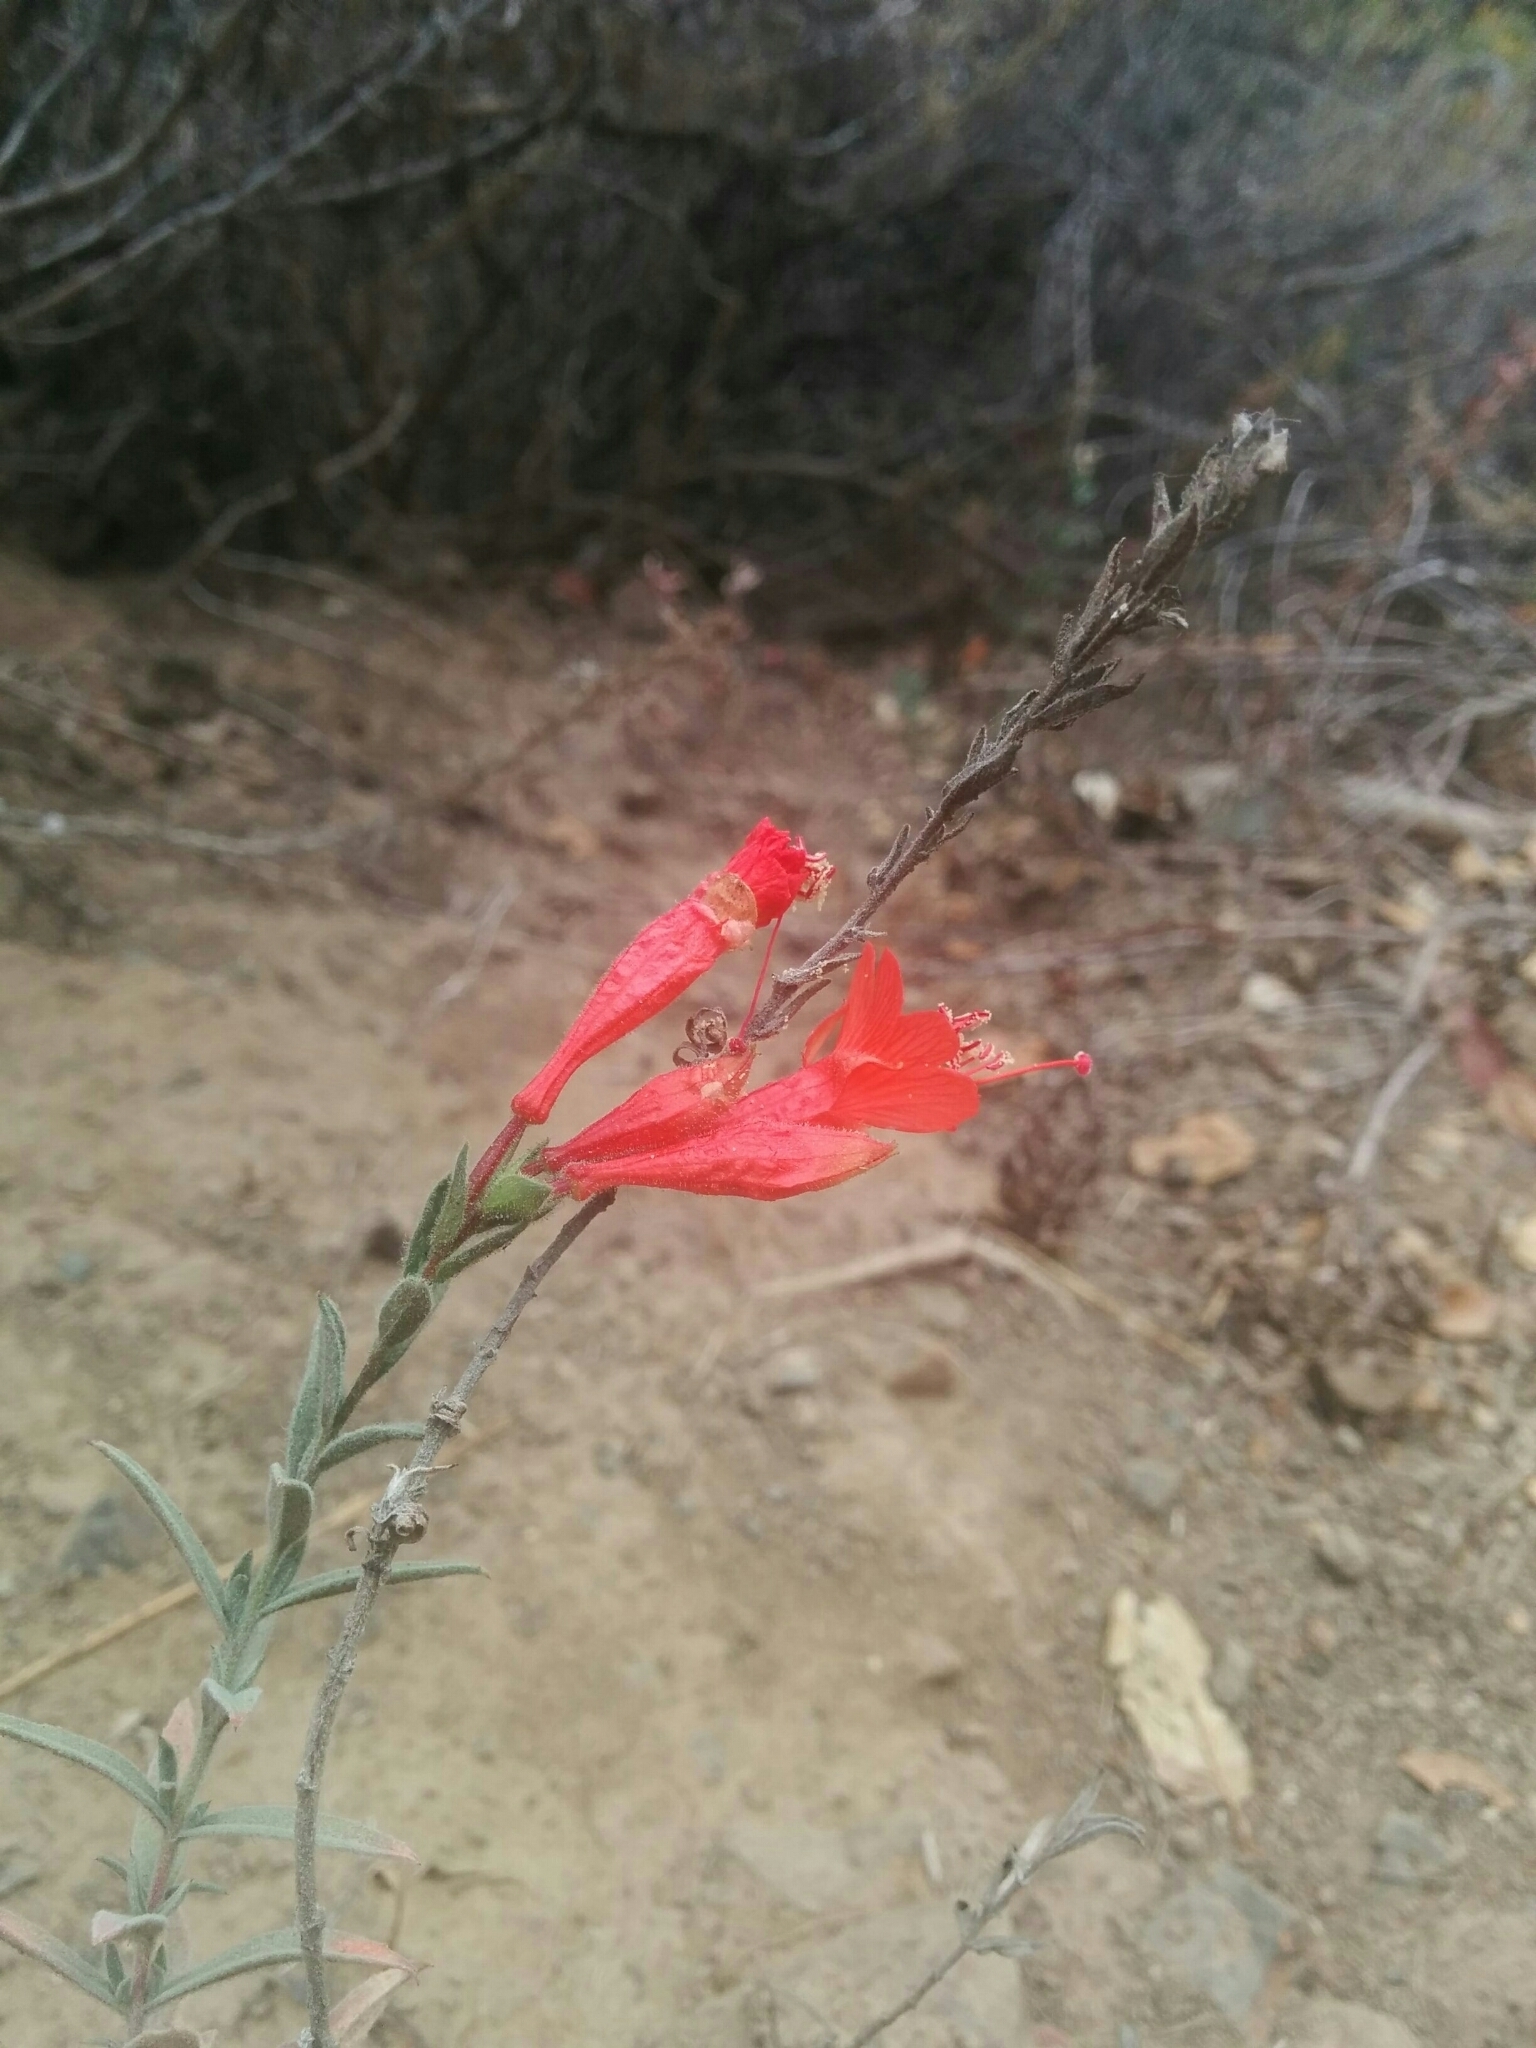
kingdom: Plantae
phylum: Tracheophyta
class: Magnoliopsida
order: Myrtales
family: Onagraceae
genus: Epilobium
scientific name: Epilobium canum
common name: California-fuchsia
